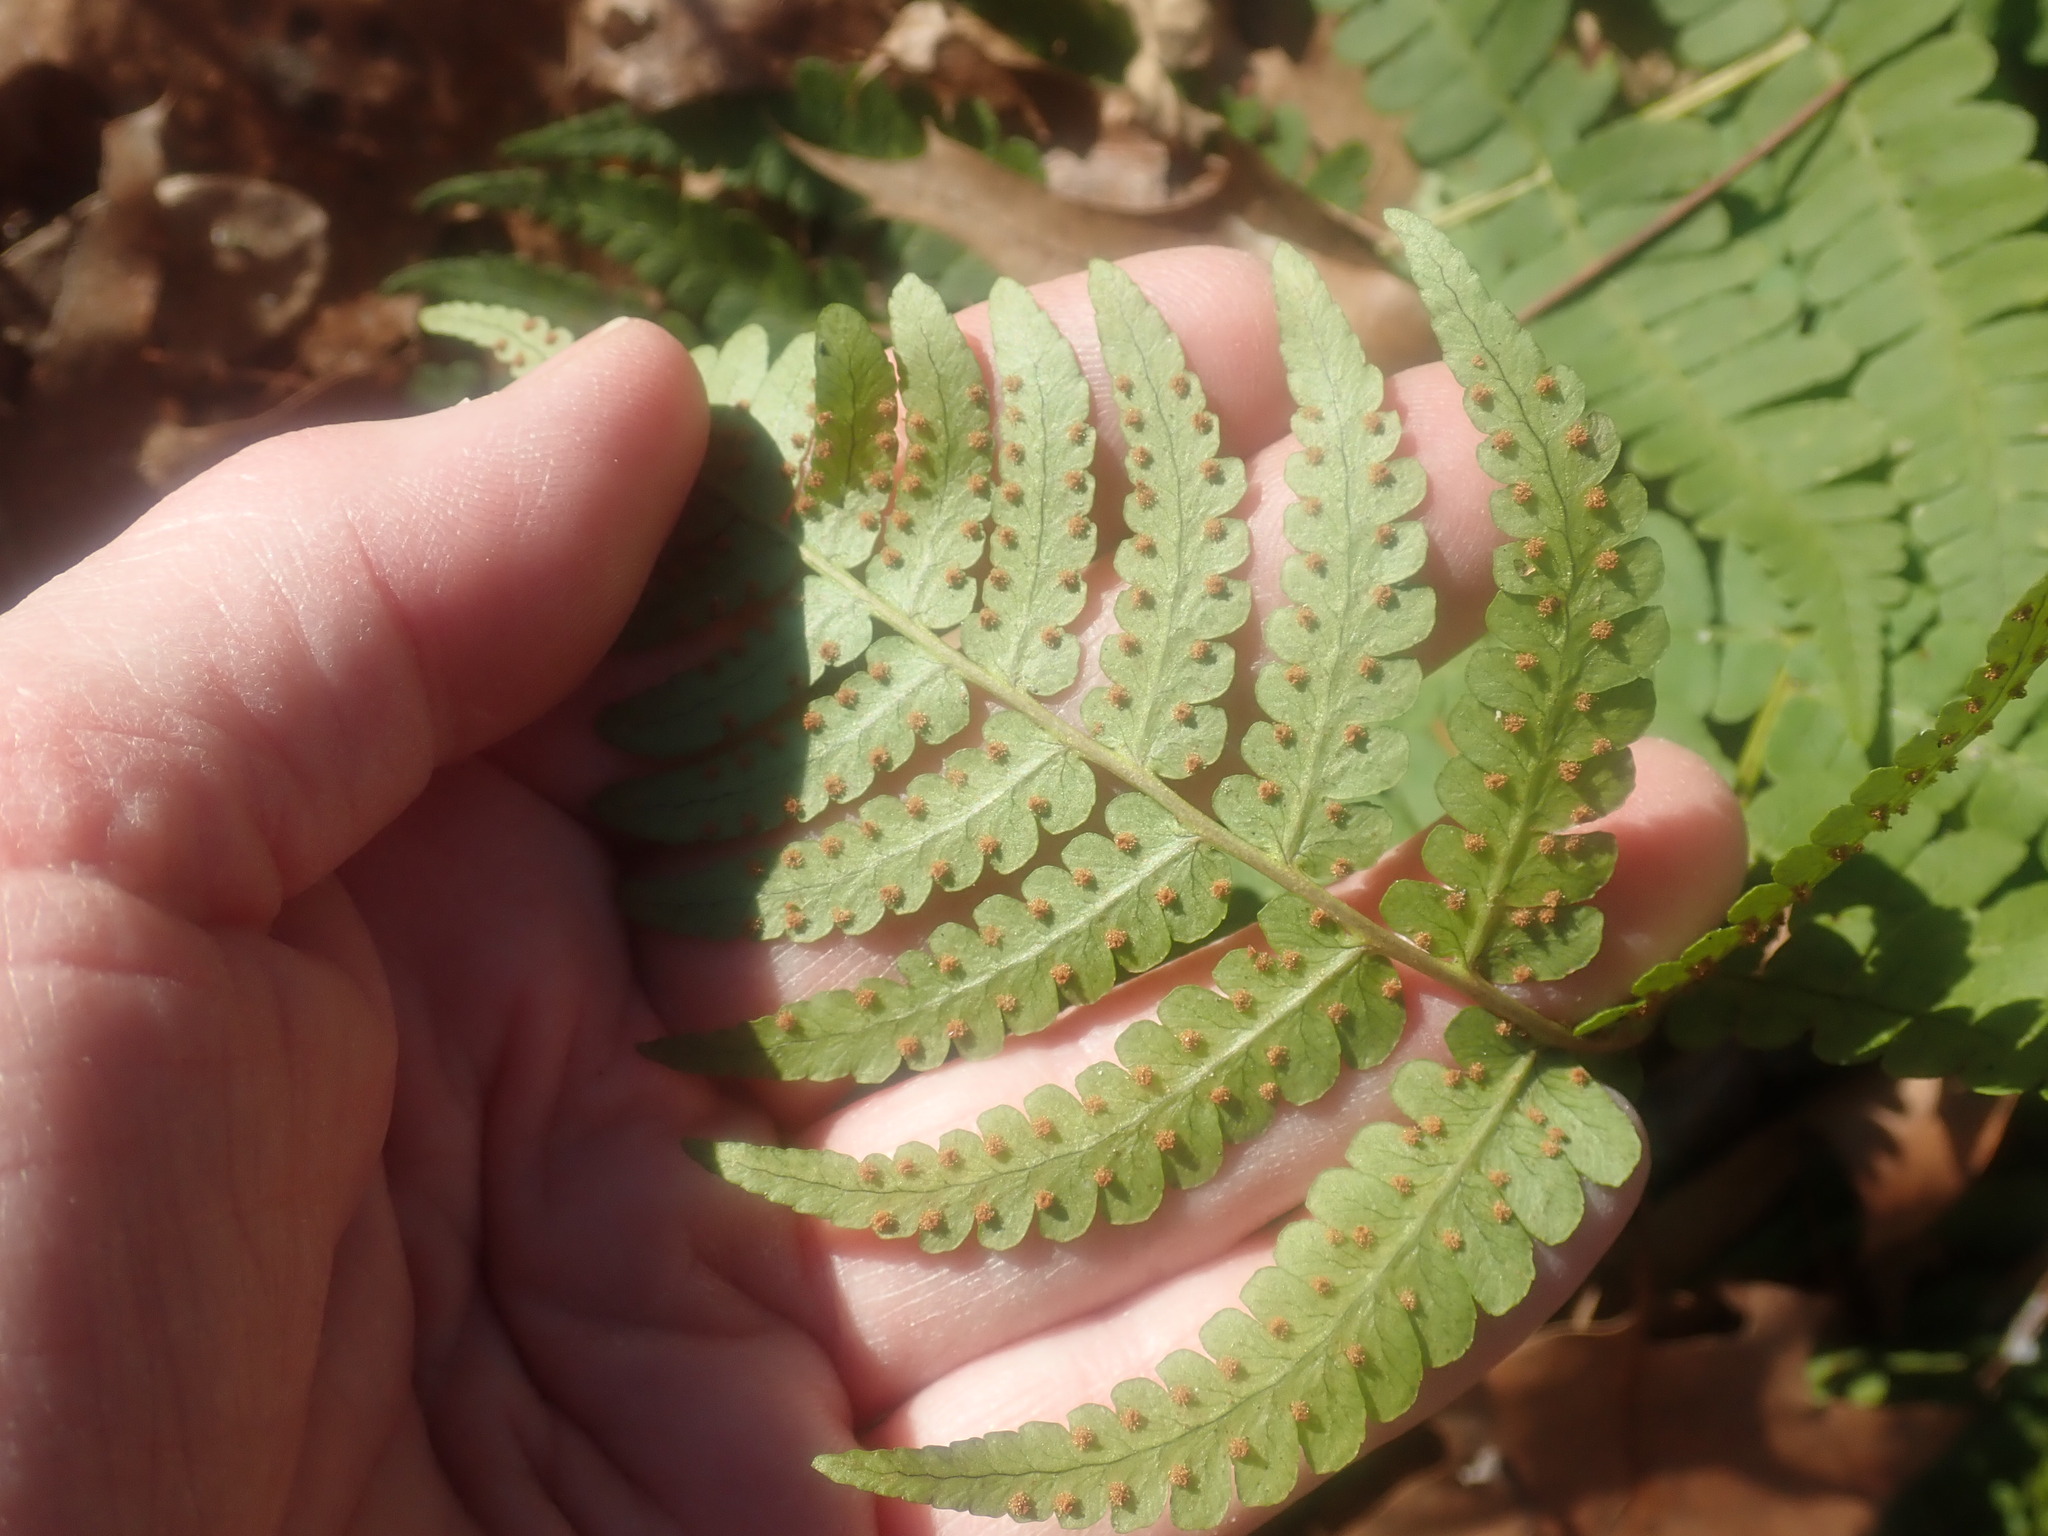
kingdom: Plantae
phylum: Tracheophyta
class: Polypodiopsida
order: Polypodiales
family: Dryopteridaceae
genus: Dryopteris
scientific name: Dryopteris marginalis
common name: Marginal wood fern
